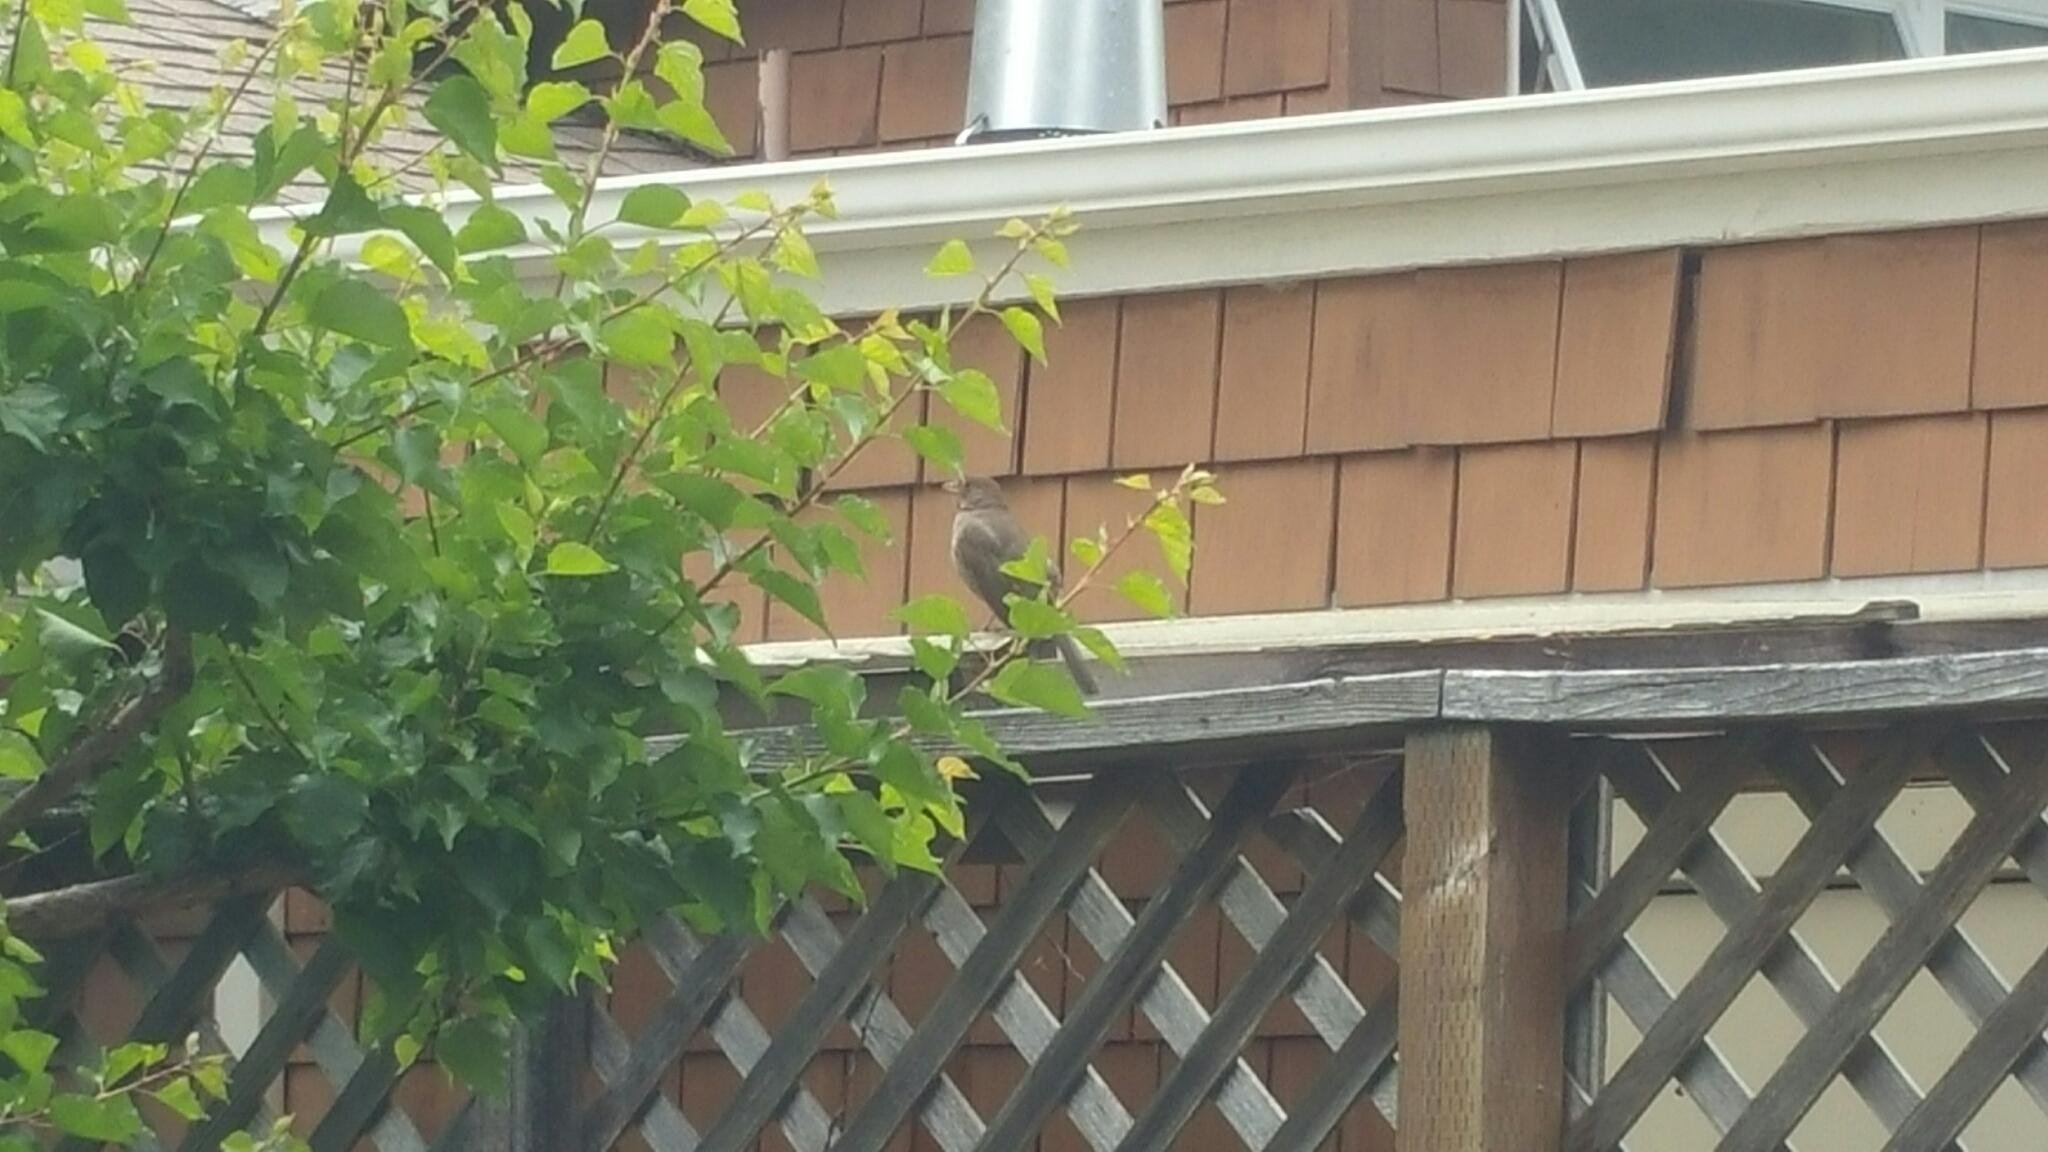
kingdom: Animalia
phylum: Chordata
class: Aves
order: Passeriformes
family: Passerellidae
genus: Melozone
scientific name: Melozone crissalis
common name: California towhee
